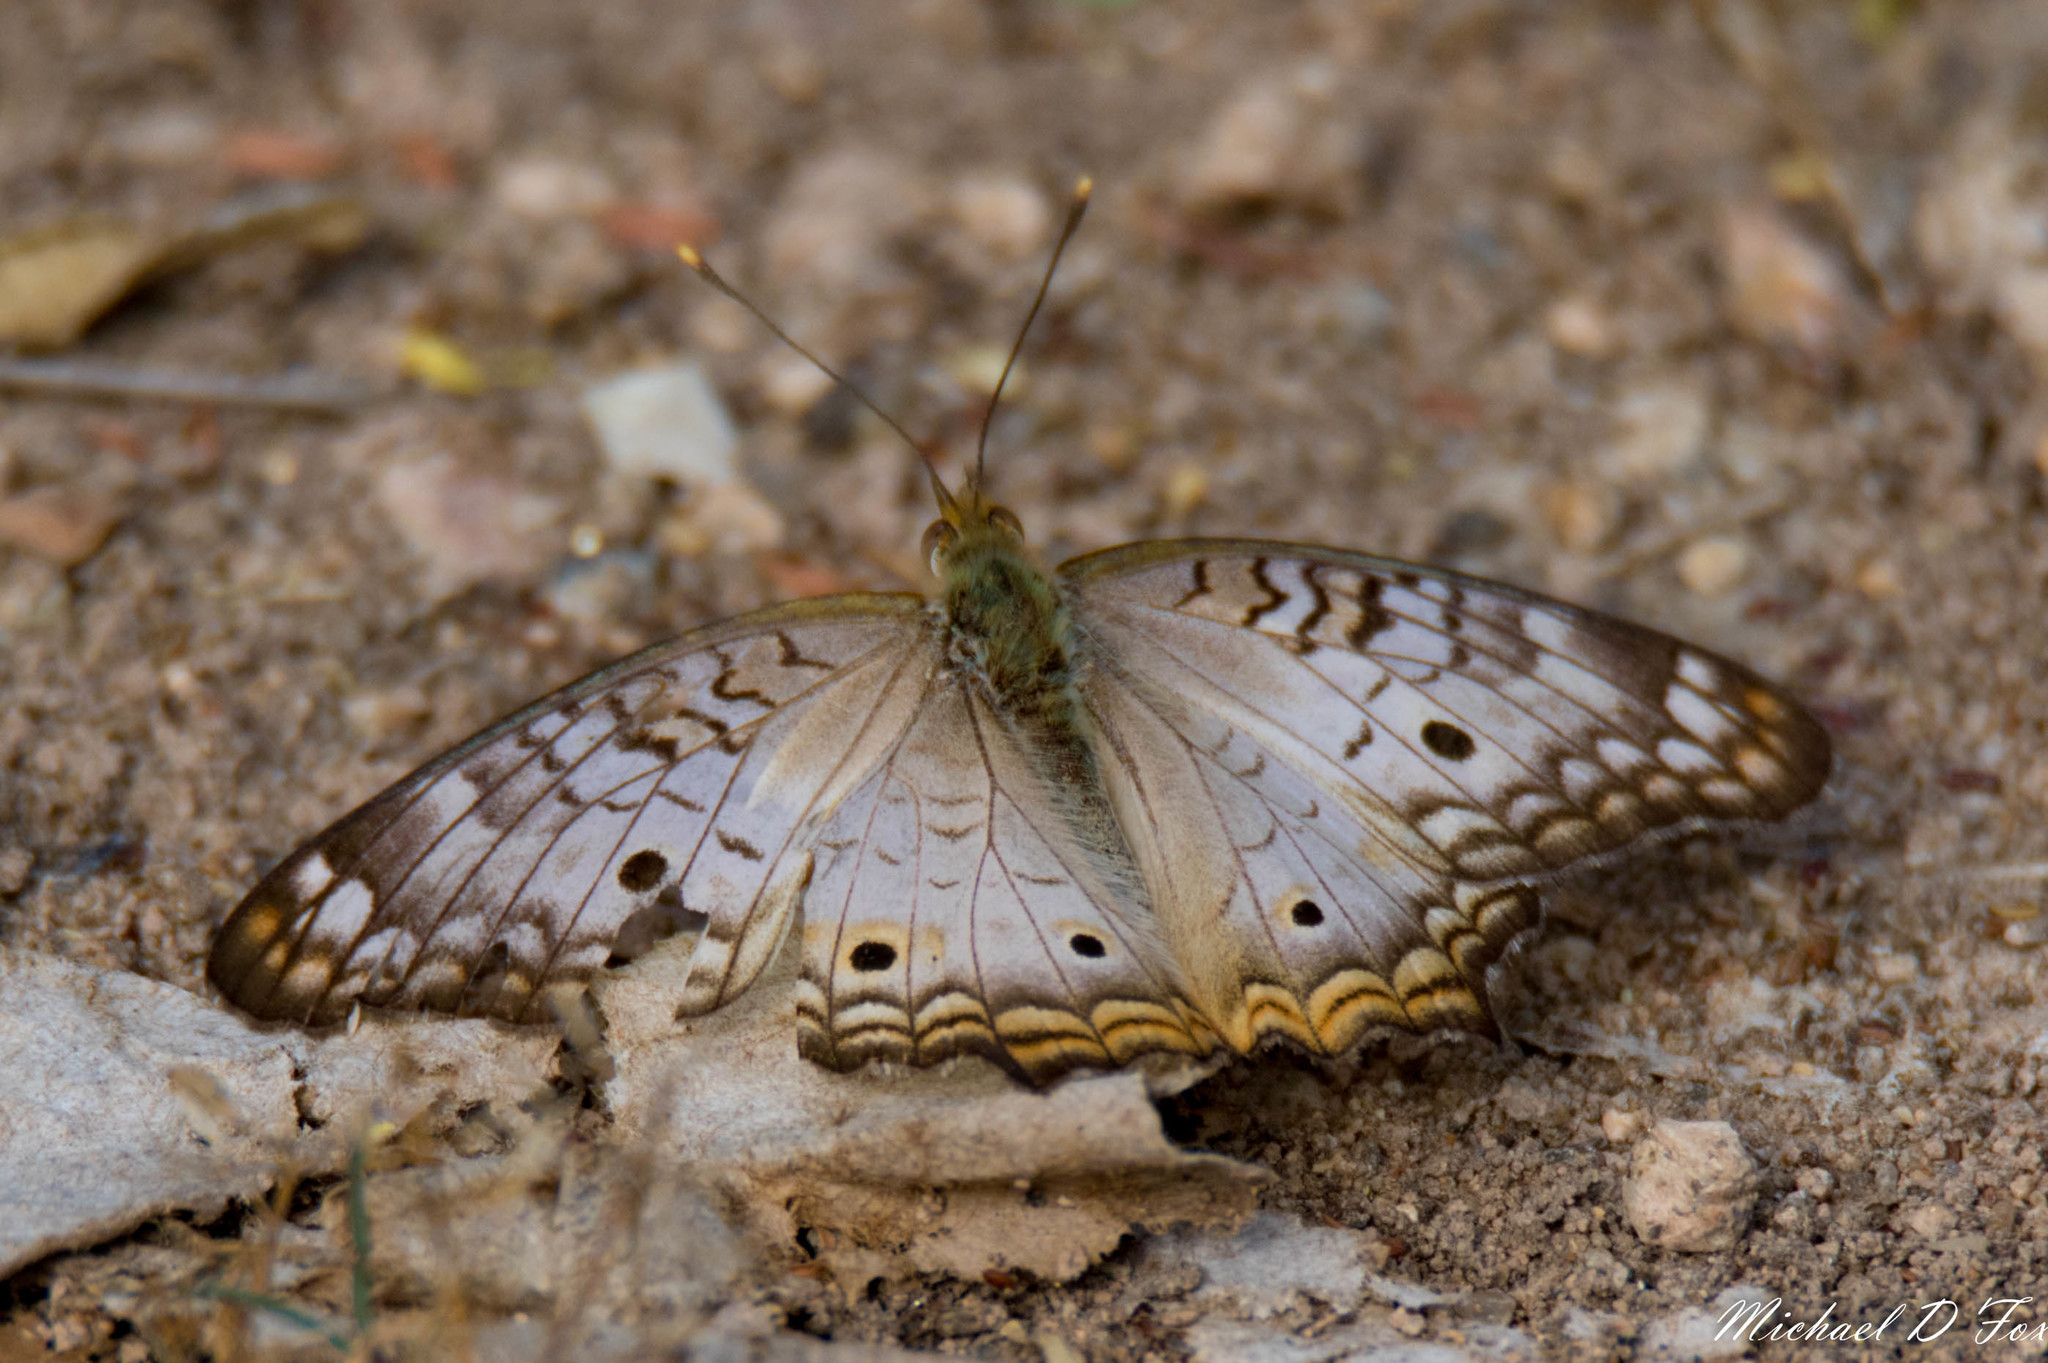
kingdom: Animalia
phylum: Arthropoda
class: Insecta
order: Lepidoptera
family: Nymphalidae
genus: Anartia
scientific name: Anartia jatrophae
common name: White peacock
